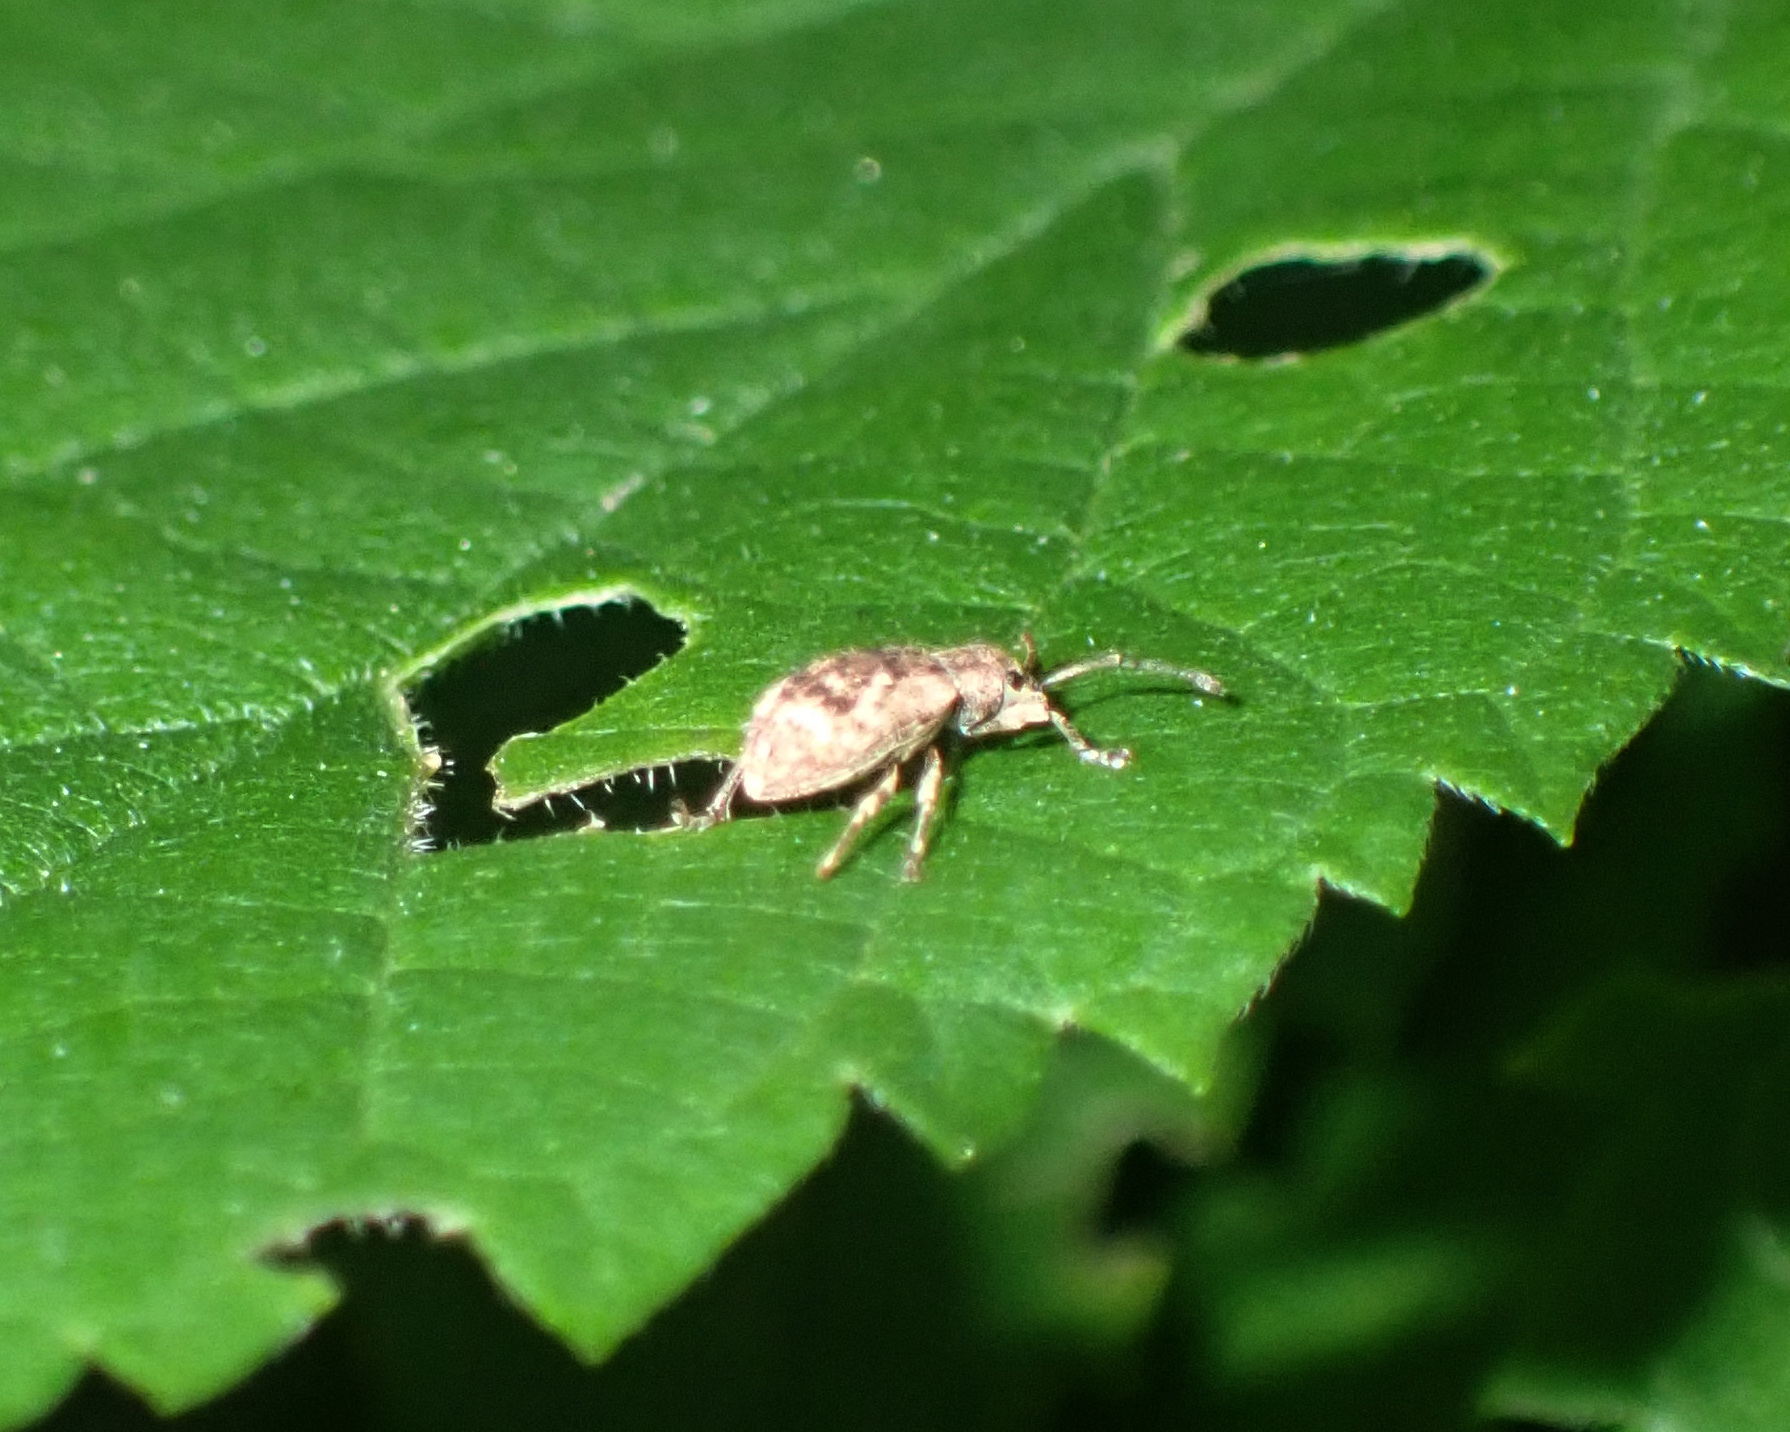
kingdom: Animalia
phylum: Arthropoda
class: Insecta
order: Coleoptera
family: Curculionidae
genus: Pseudoedophrys
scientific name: Pseudoedophrys hilleri
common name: Weevil
